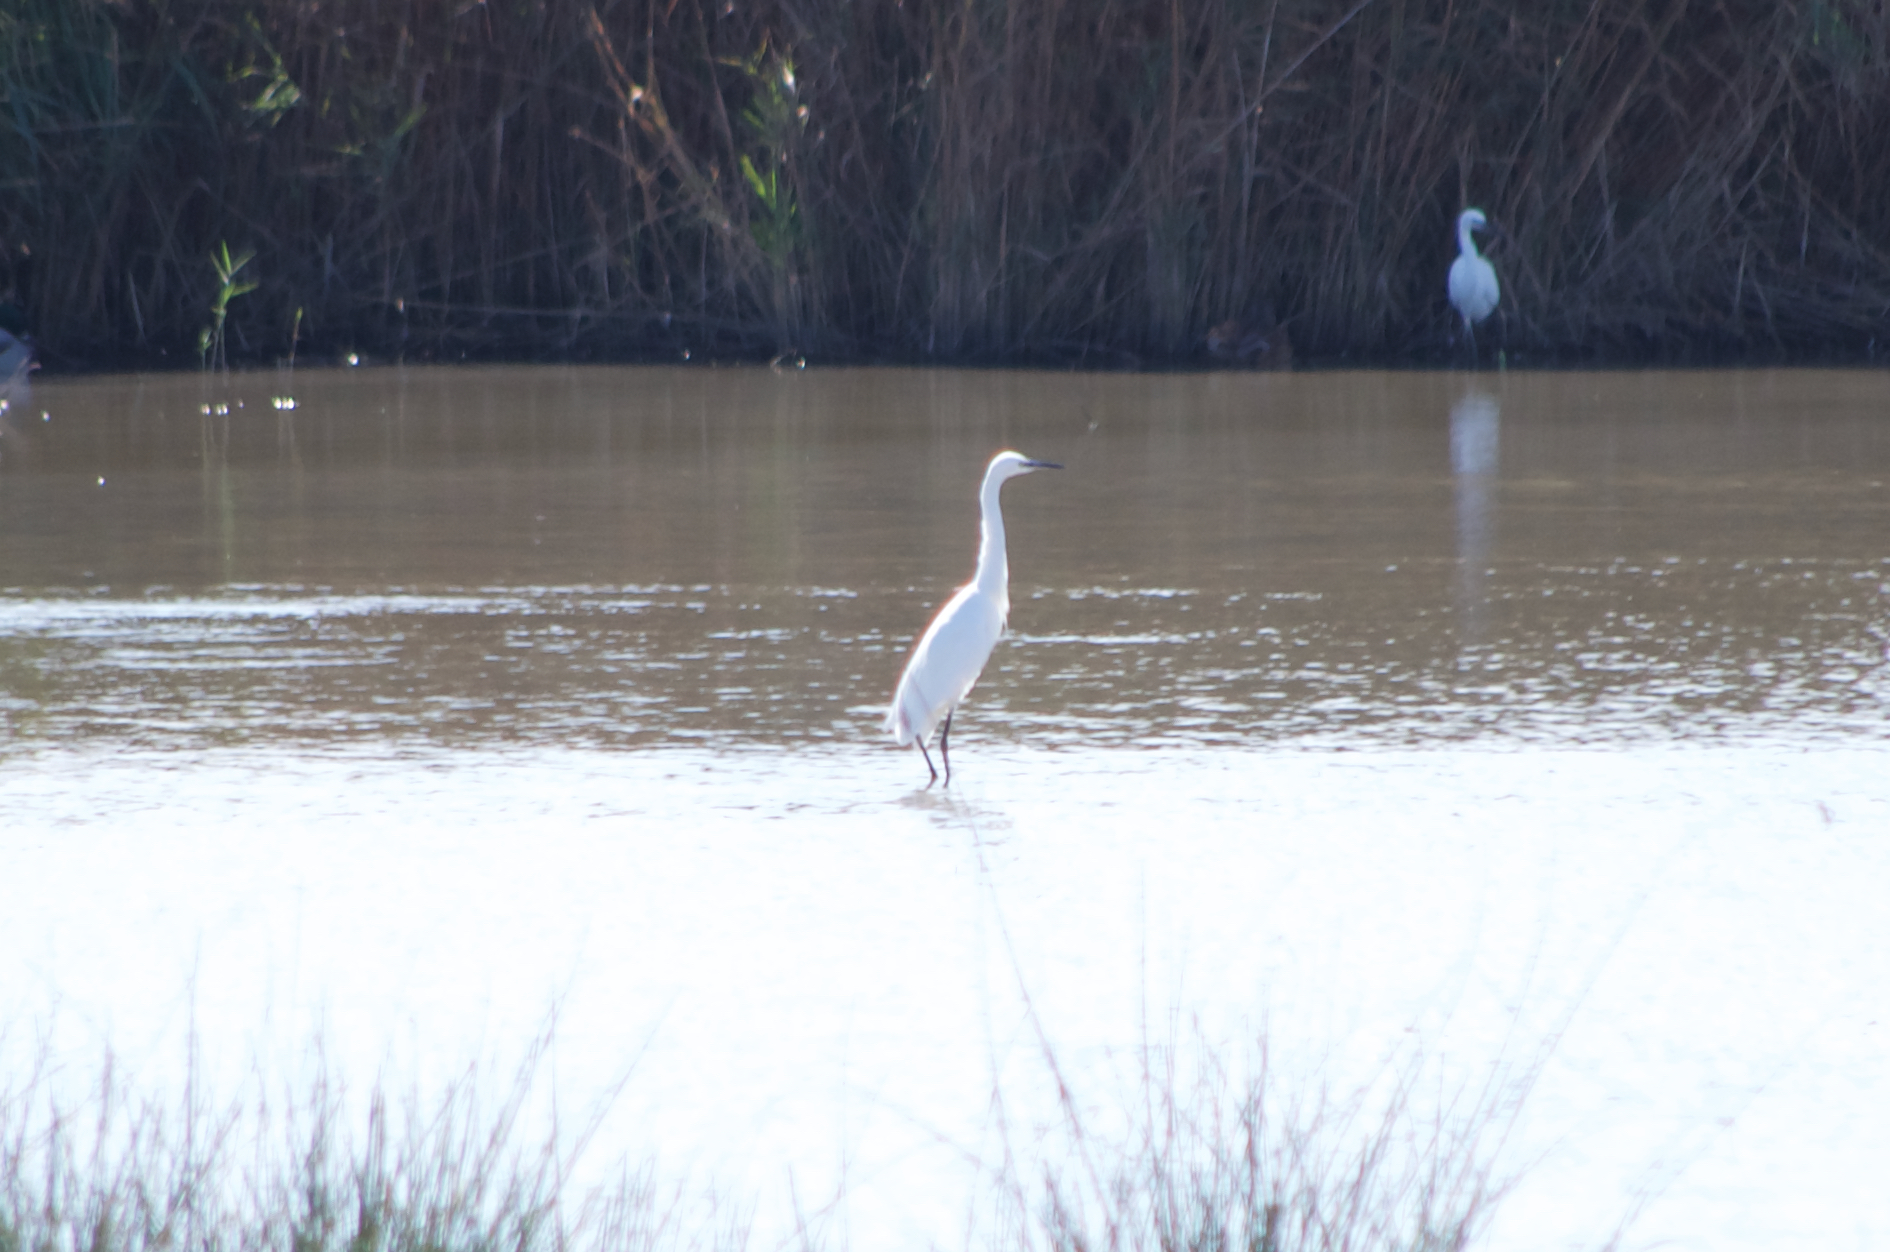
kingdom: Animalia
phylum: Chordata
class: Aves
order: Pelecaniformes
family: Ardeidae
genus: Egretta
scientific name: Egretta garzetta
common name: Little egret
